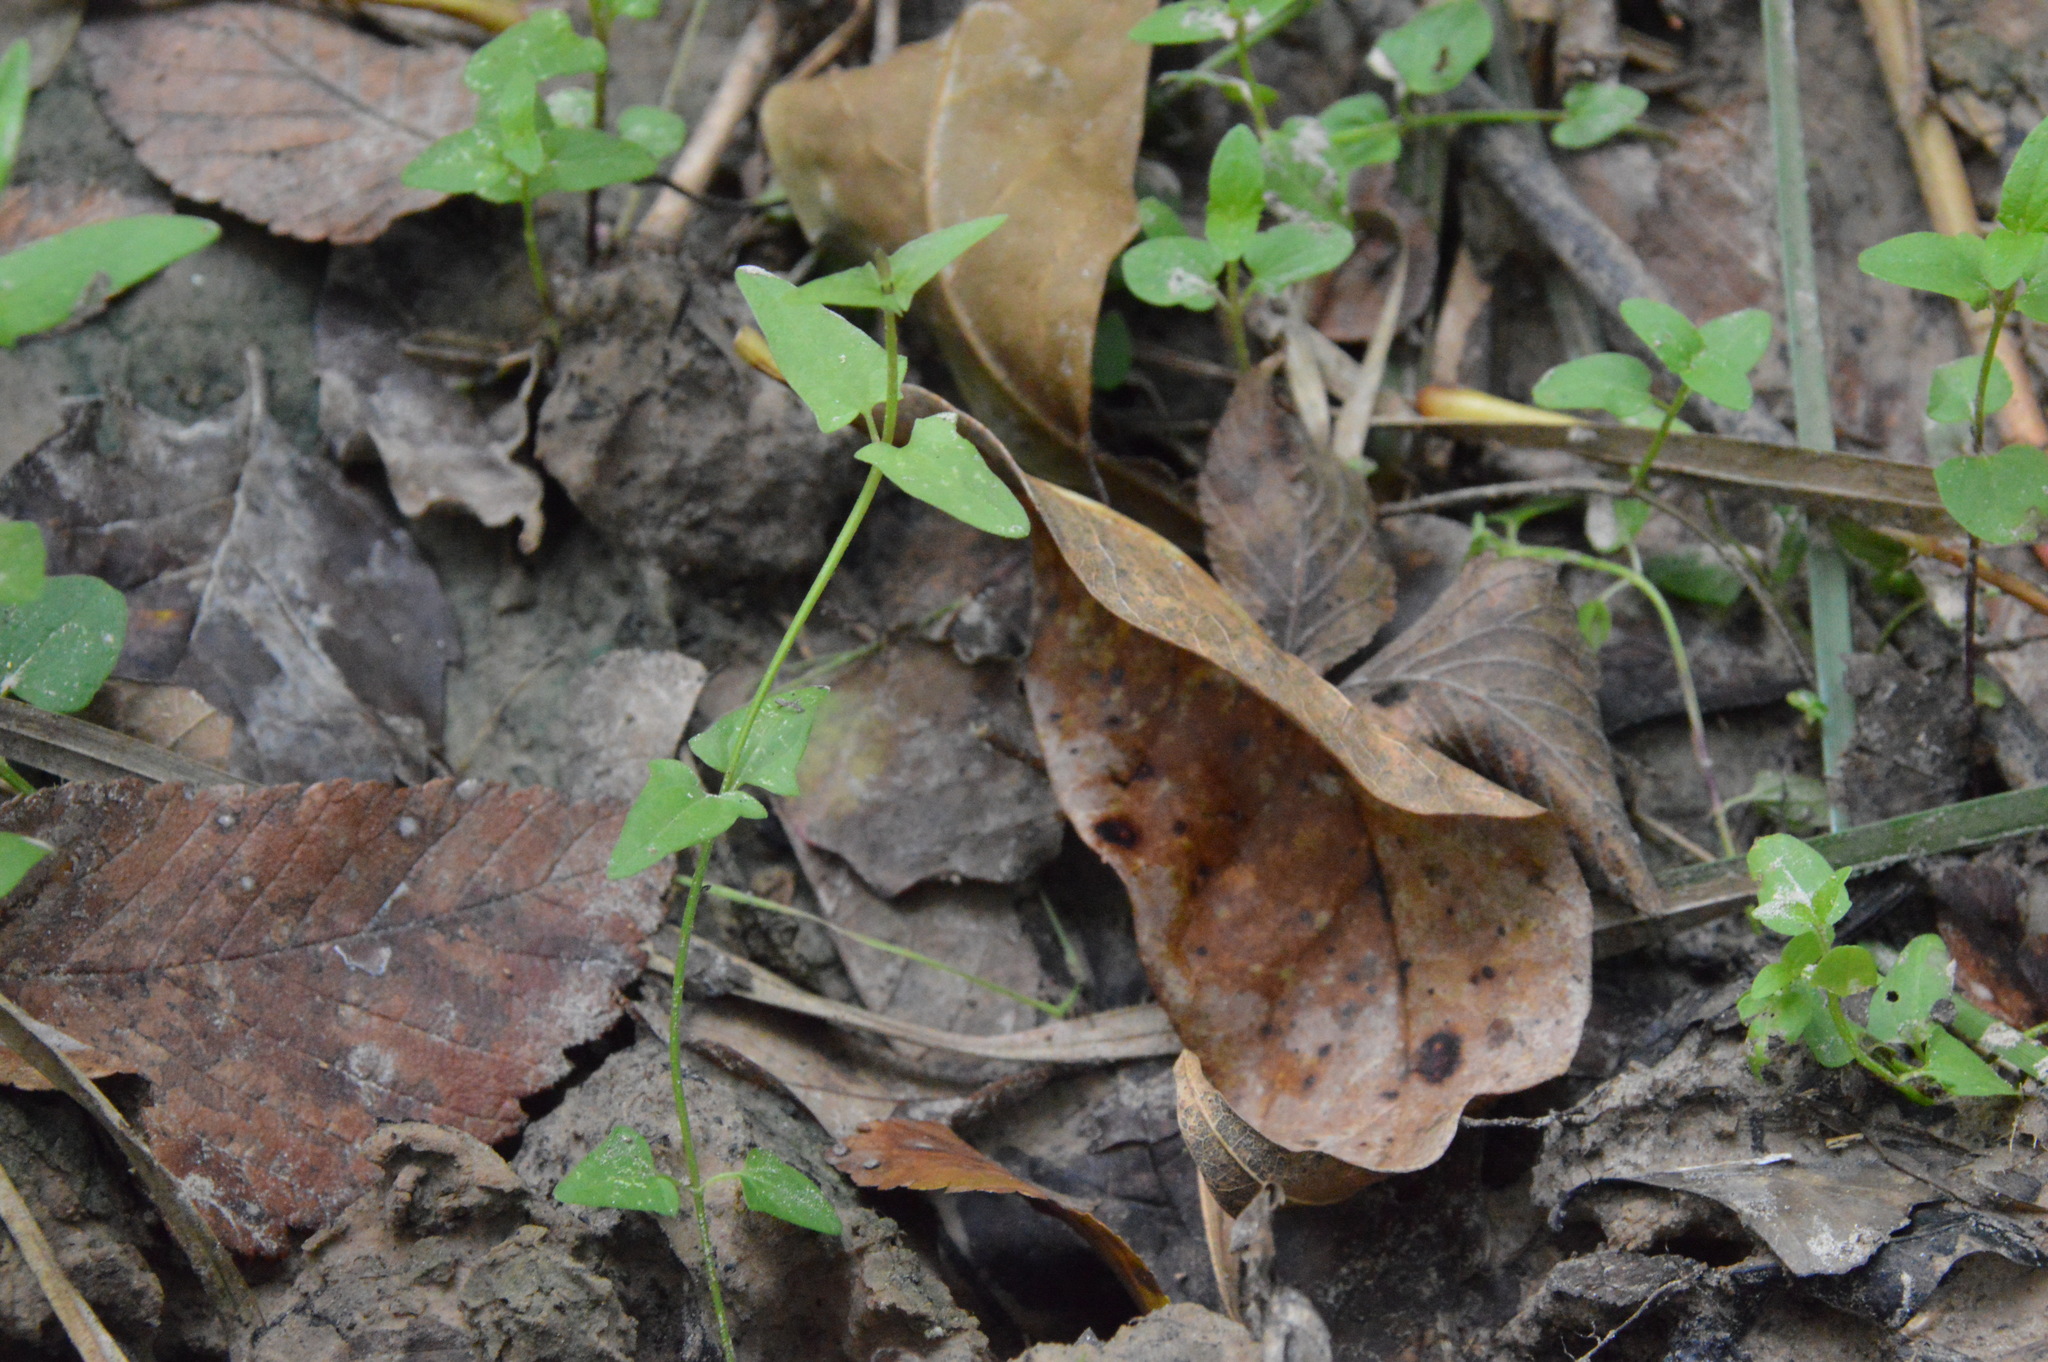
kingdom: Plantae
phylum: Tracheophyta
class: Magnoliopsida
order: Lamiales
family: Lamiaceae
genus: Scutellaria
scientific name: Scutellaria racemosa
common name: South american skullcap
